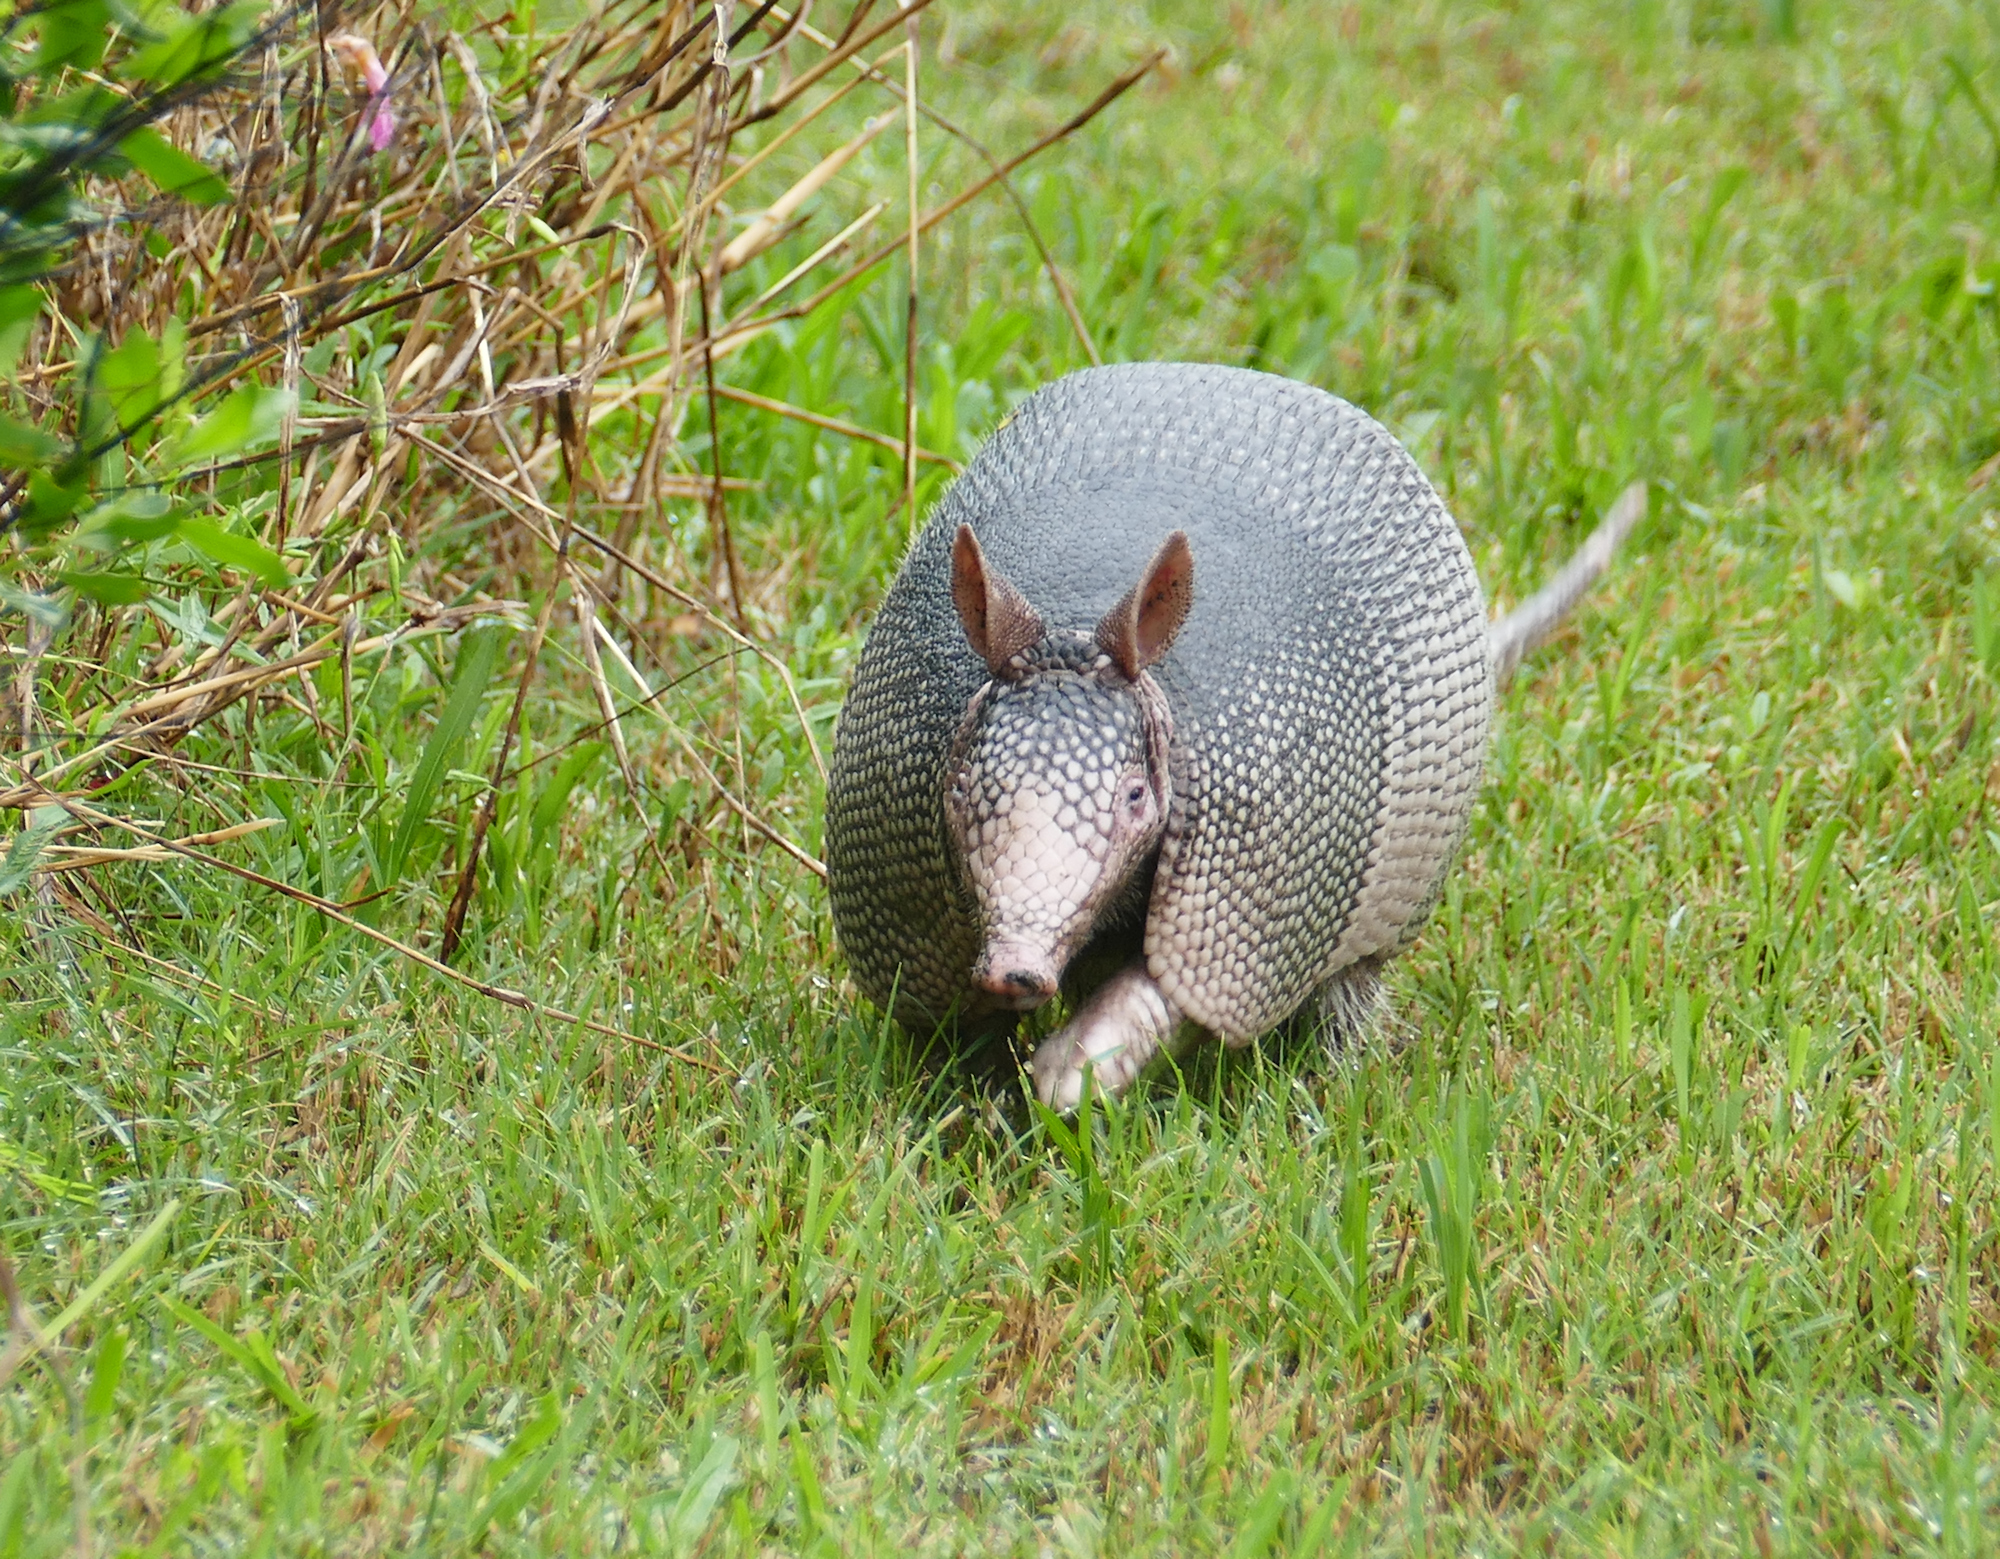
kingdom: Animalia
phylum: Chordata
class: Mammalia
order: Cingulata
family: Dasypodidae
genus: Dasypus
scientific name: Dasypus novemcinctus
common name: Nine-banded armadillo
